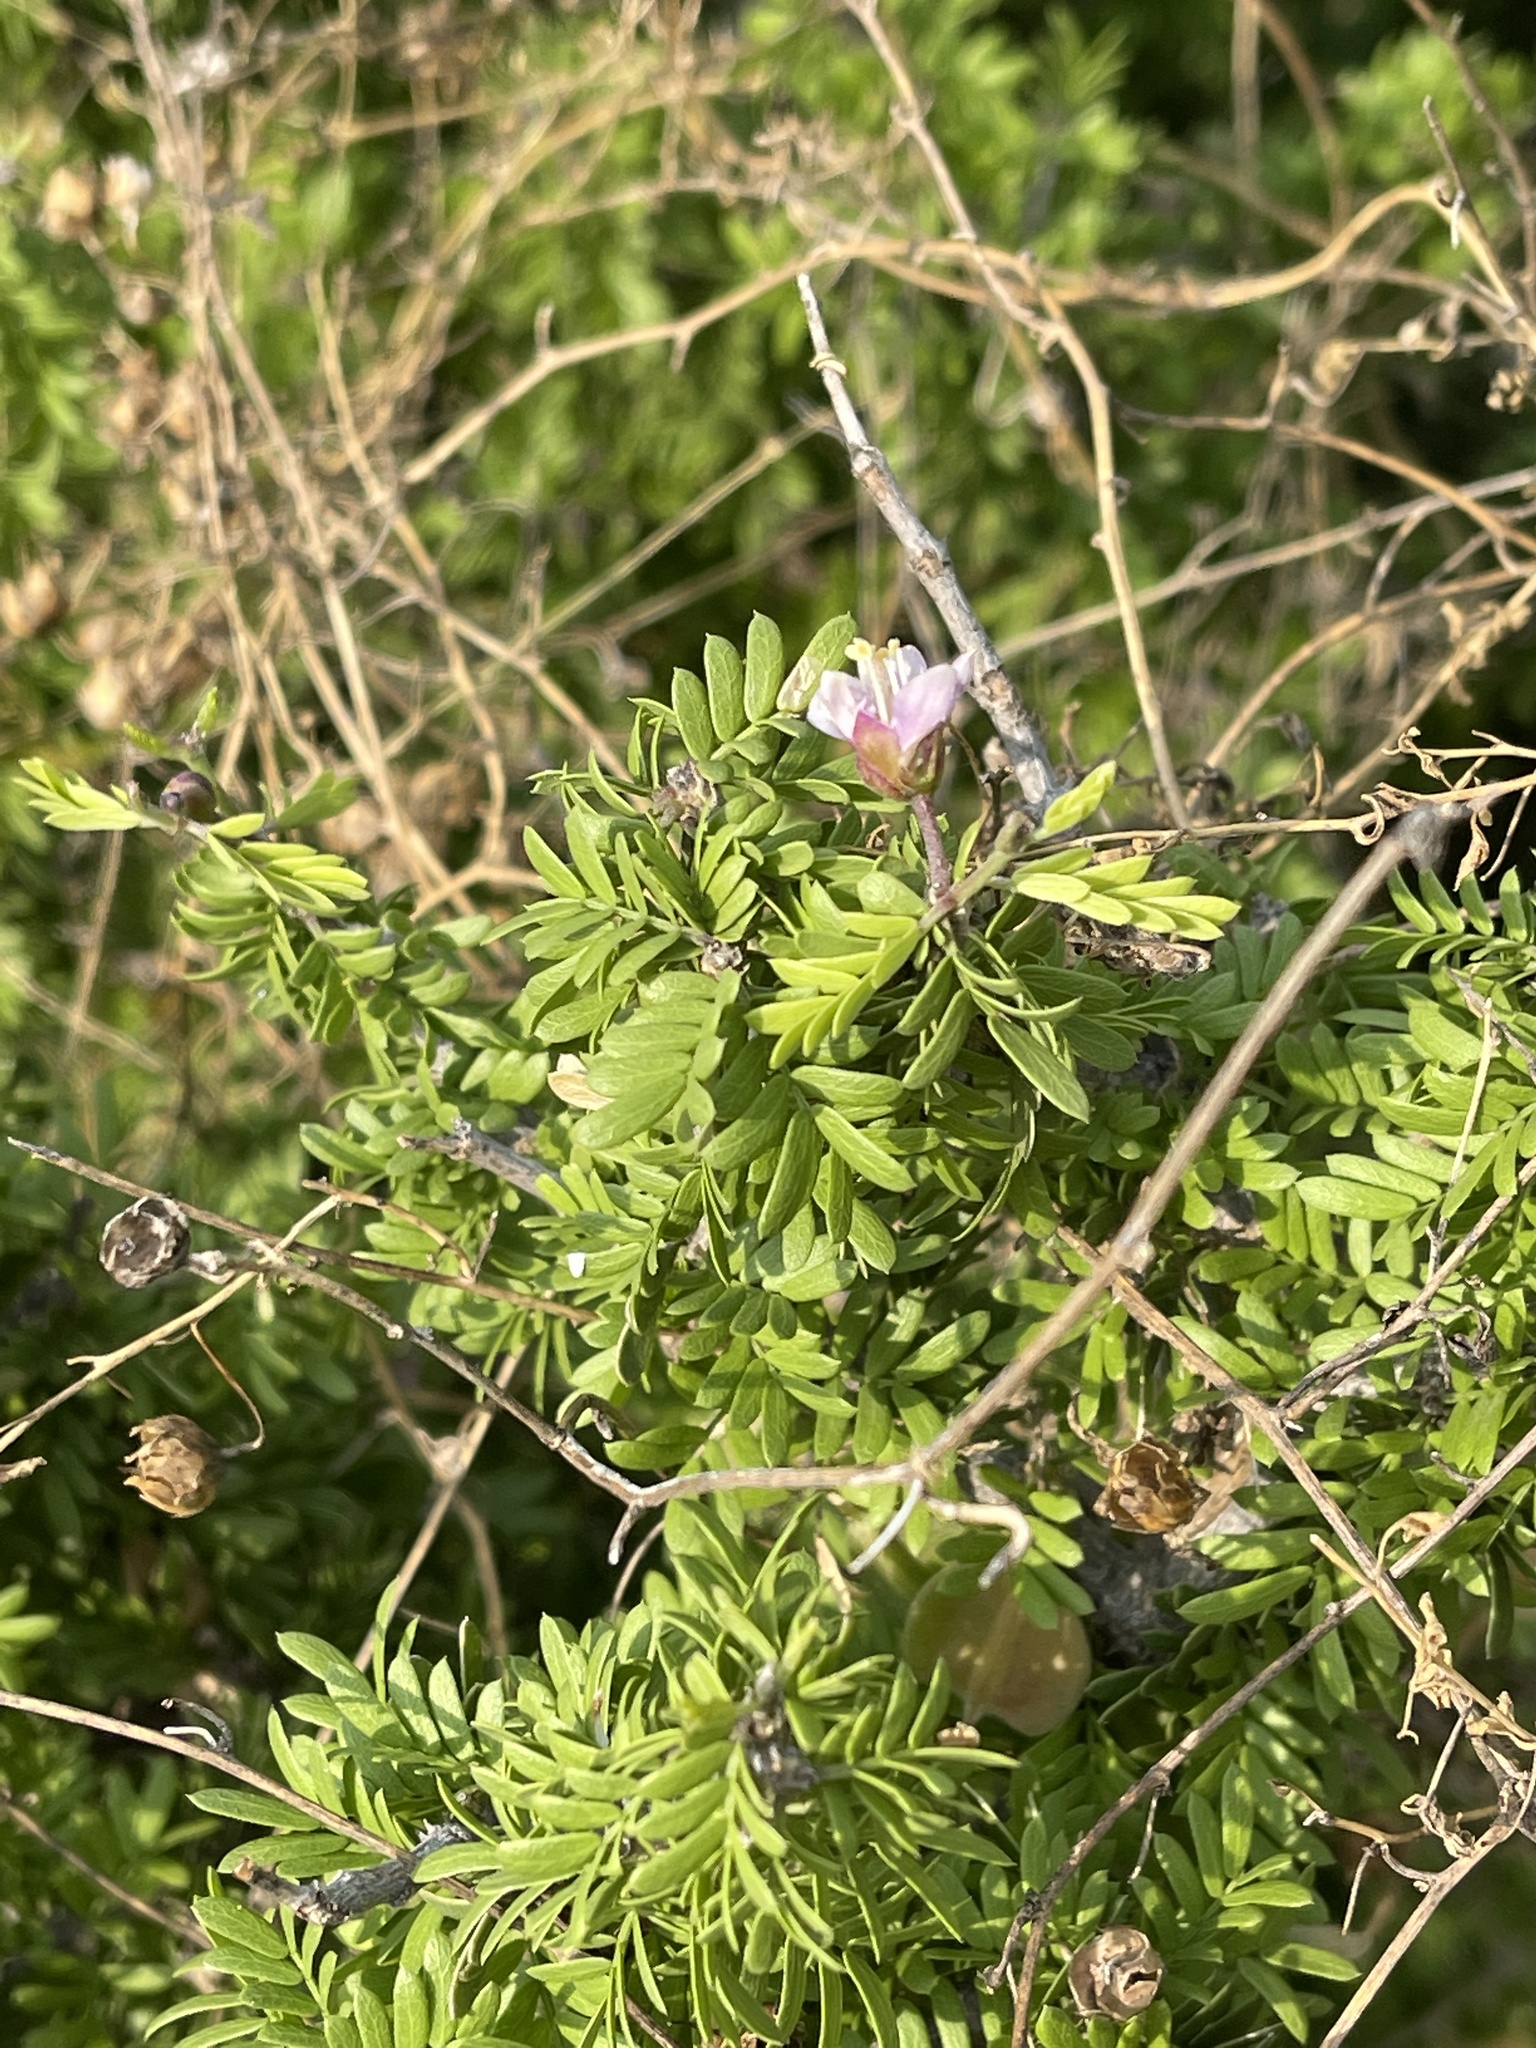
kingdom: Plantae
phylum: Tracheophyta
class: Magnoliopsida
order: Zygophyllales
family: Zygophyllaceae
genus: Porlieria
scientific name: Porlieria angustifolia
